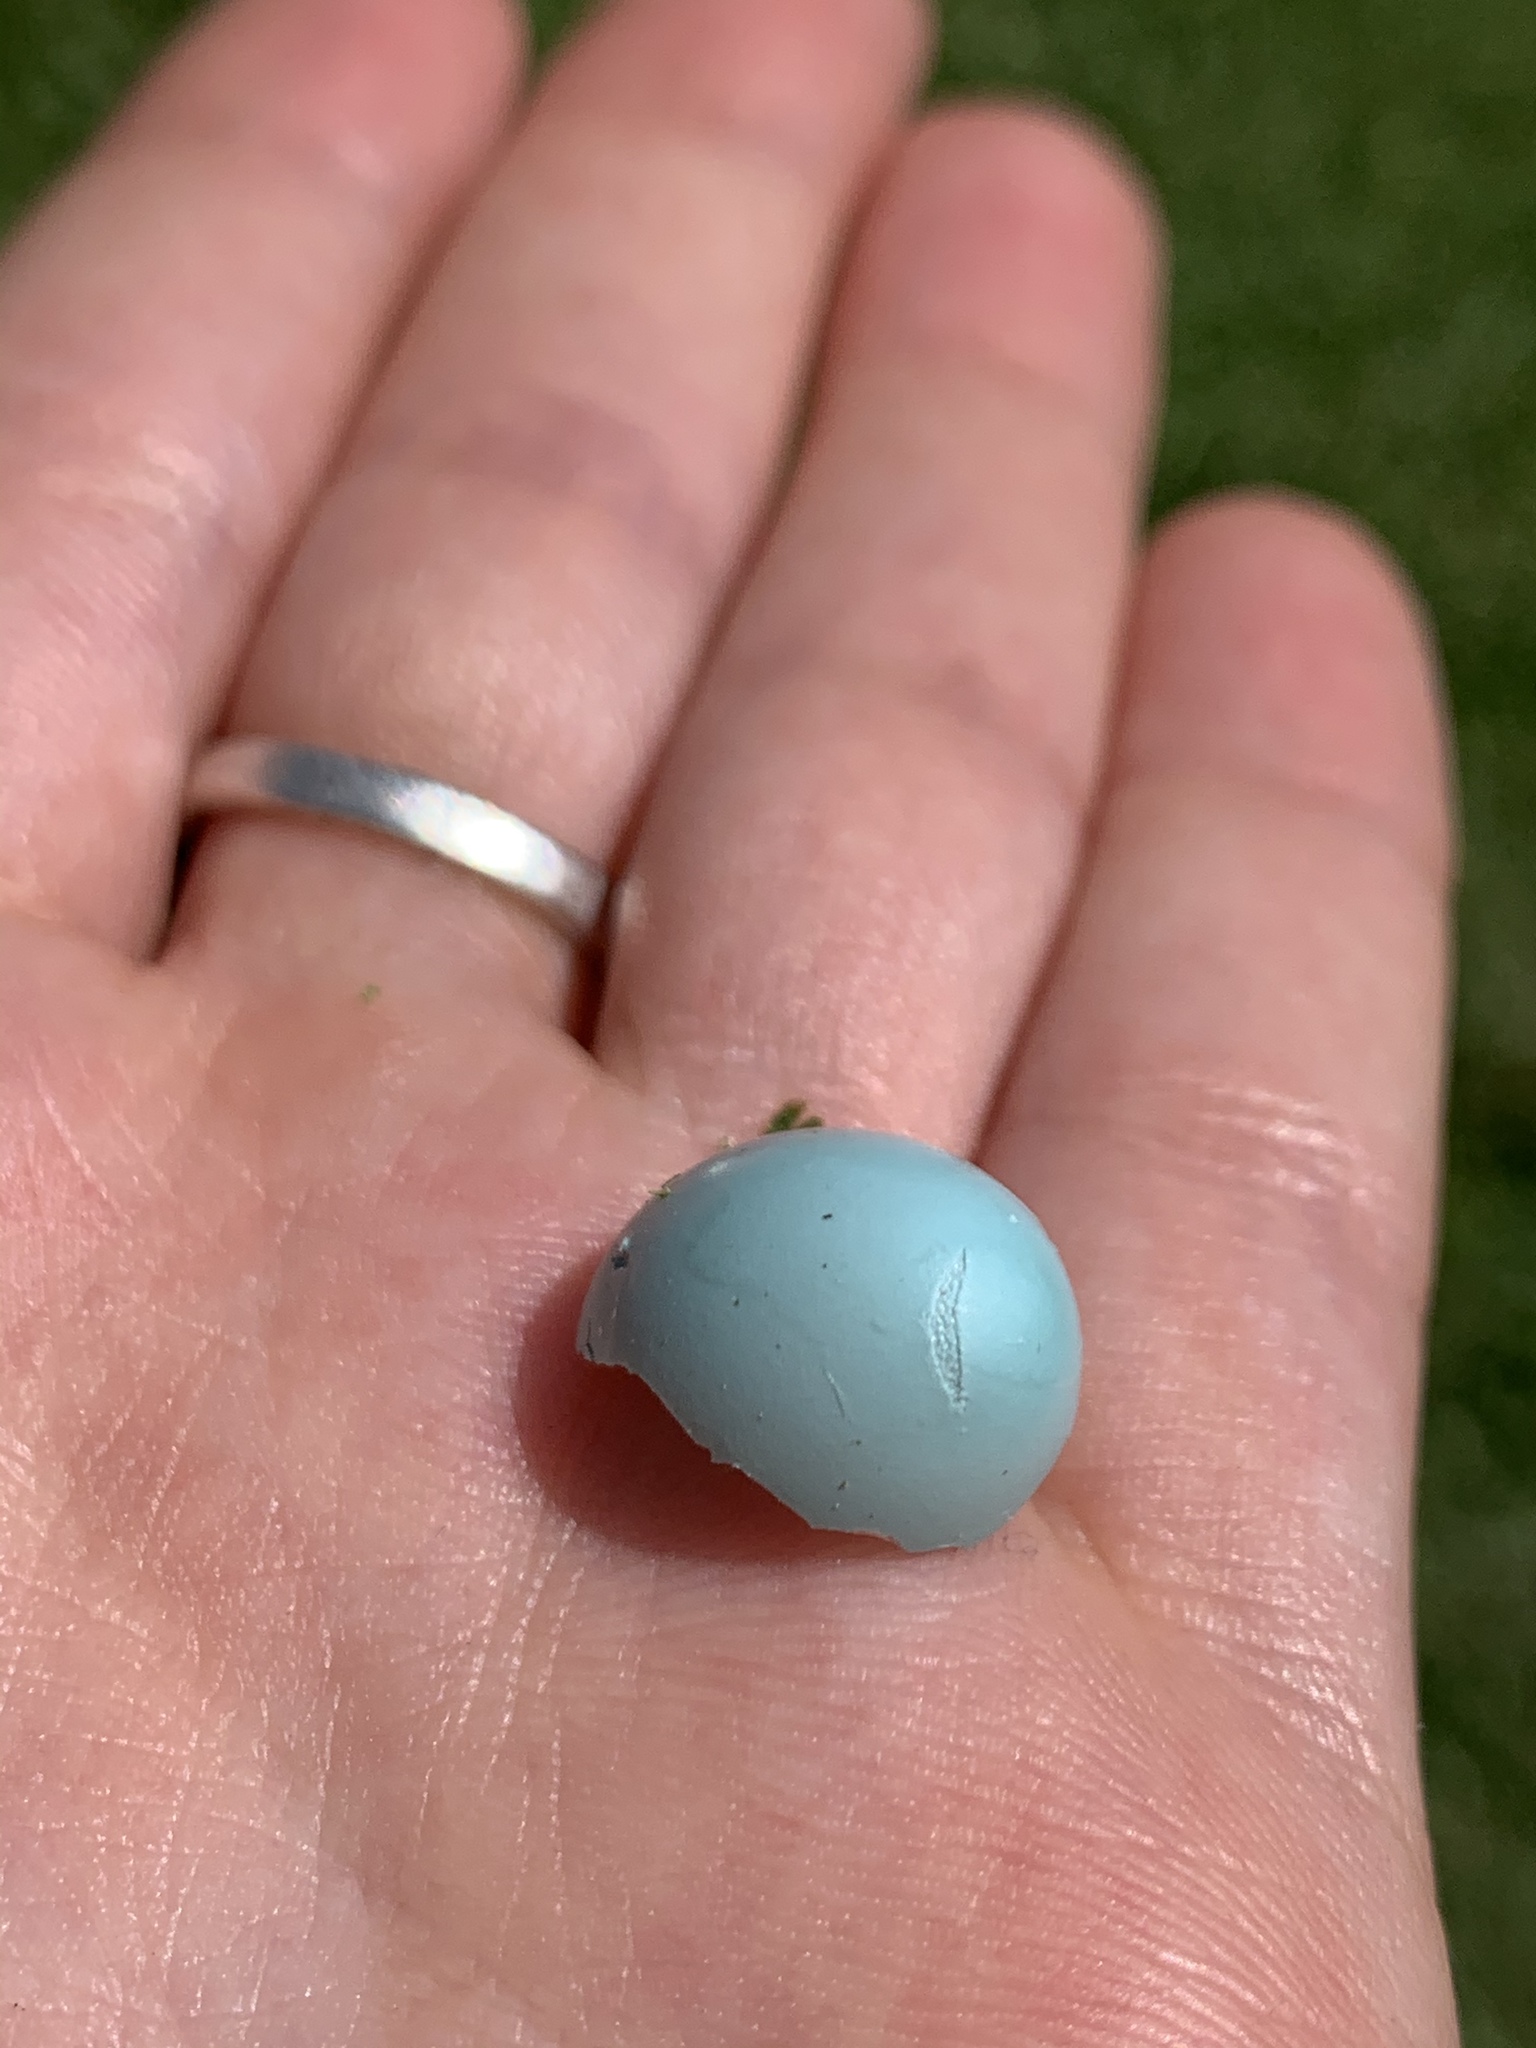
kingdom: Animalia
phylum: Chordata
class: Aves
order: Passeriformes
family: Turdidae
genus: Turdus
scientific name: Turdus migratorius
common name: American robin
